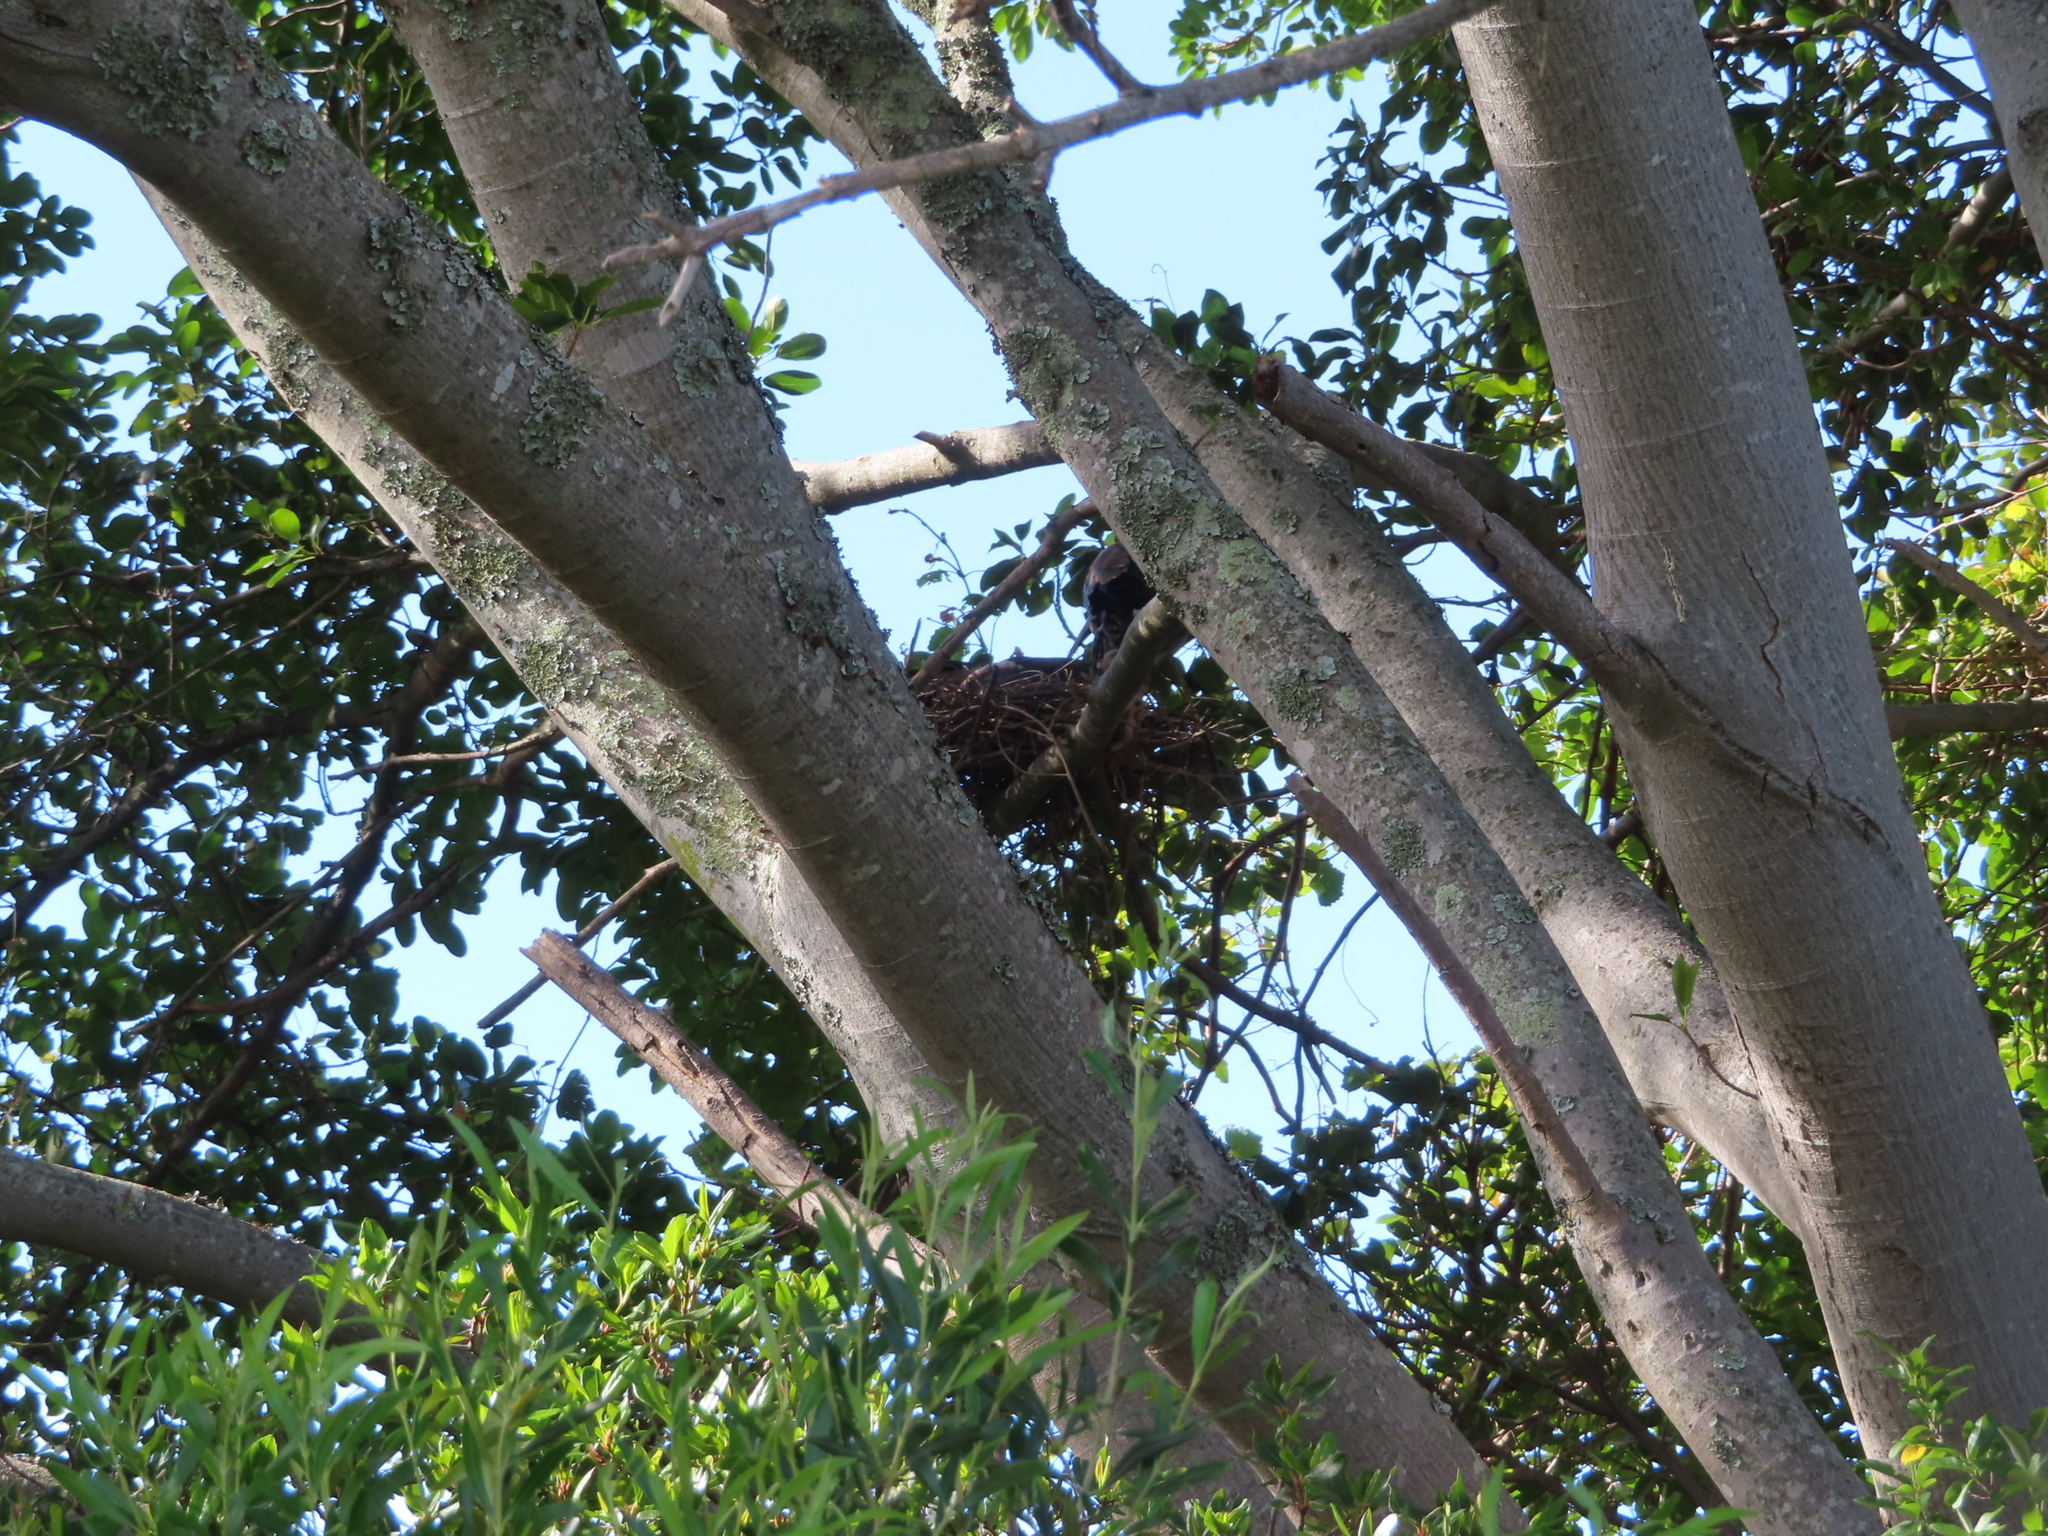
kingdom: Animalia
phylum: Chordata
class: Aves
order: Pelecaniformes
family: Threskiornithidae
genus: Bostrychia
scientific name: Bostrychia hagedash
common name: Hadada ibis
